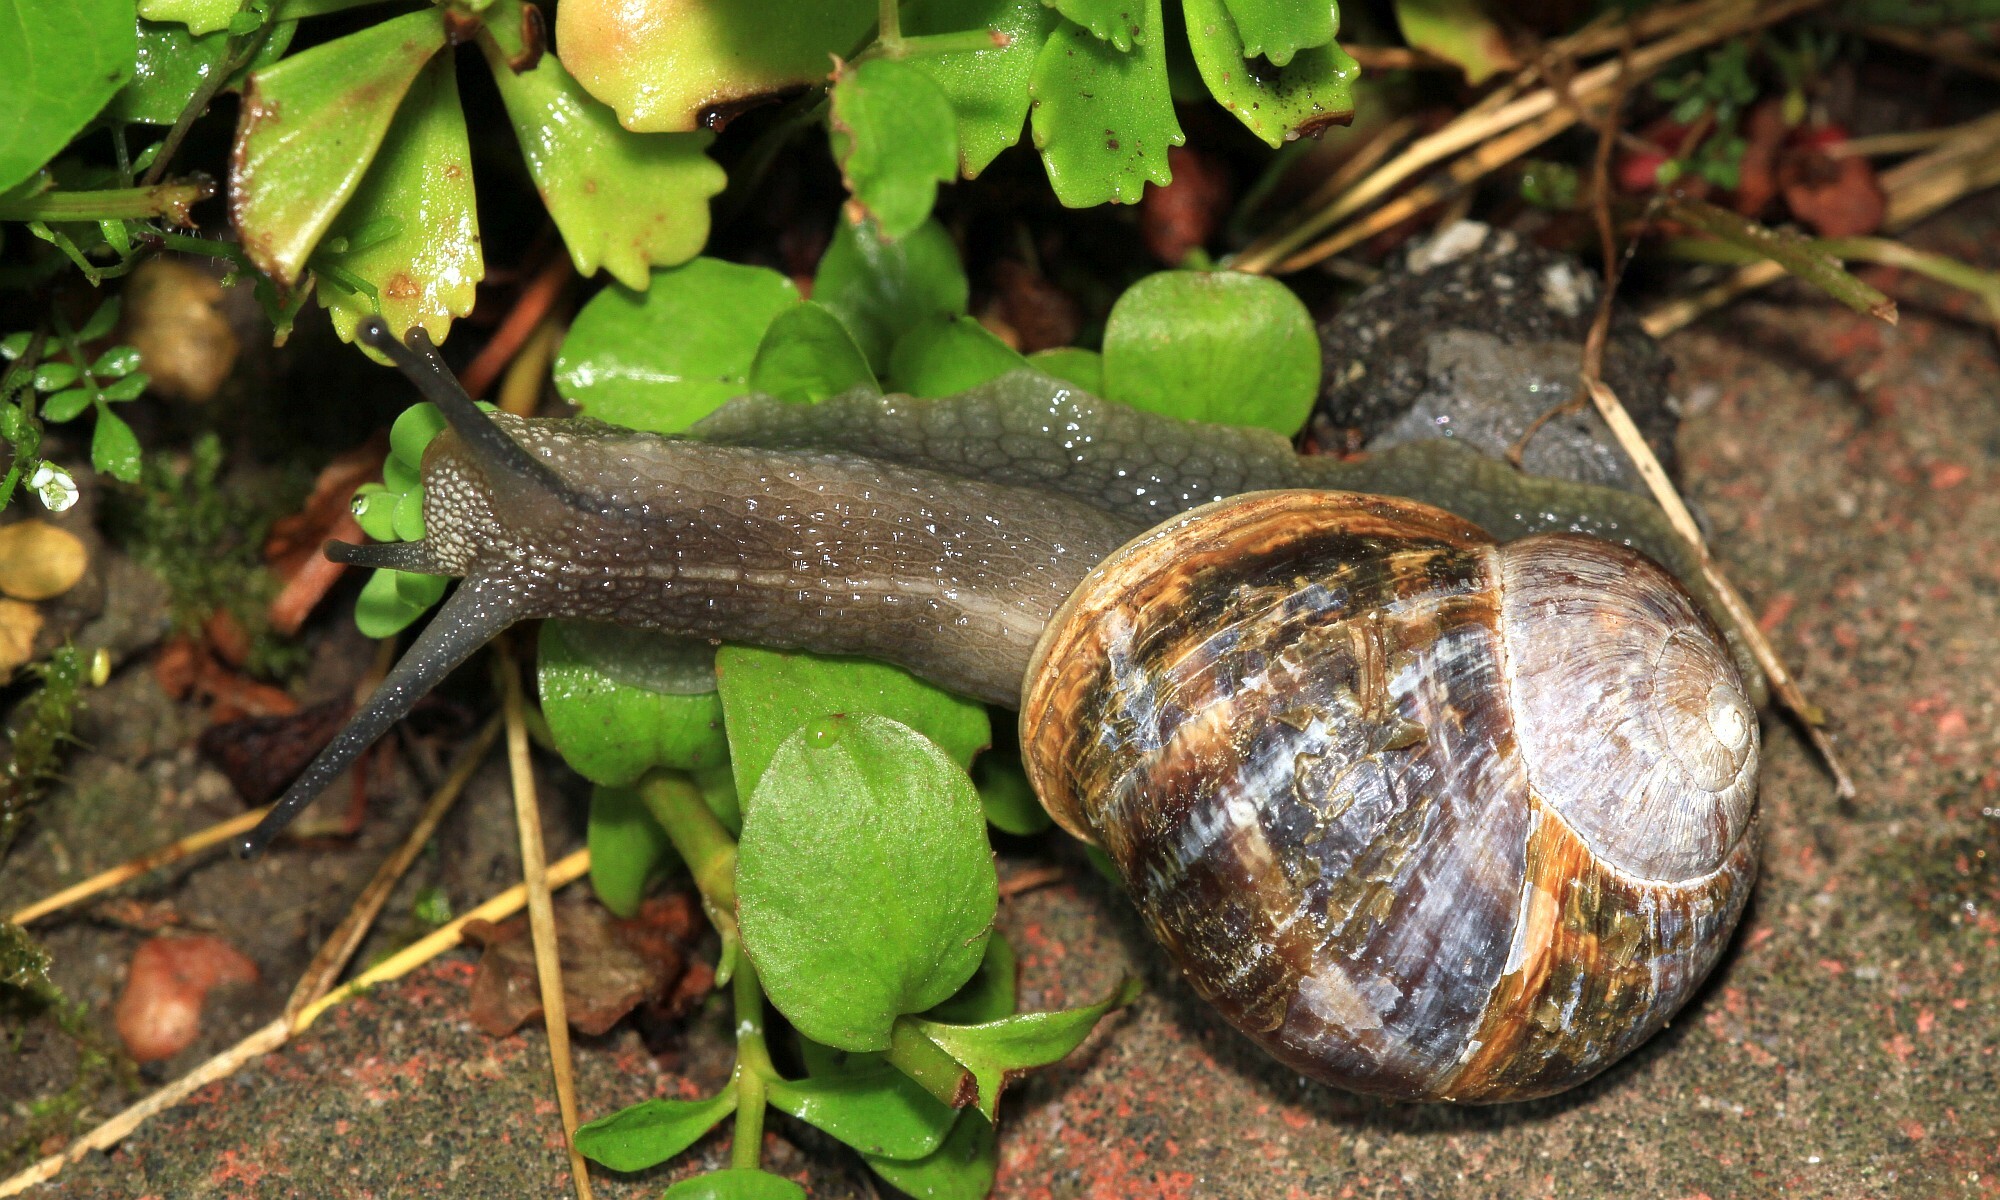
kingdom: Animalia
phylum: Mollusca
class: Gastropoda
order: Stylommatophora
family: Helicidae
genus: Cornu
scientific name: Cornu aspersum
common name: Brown garden snail
